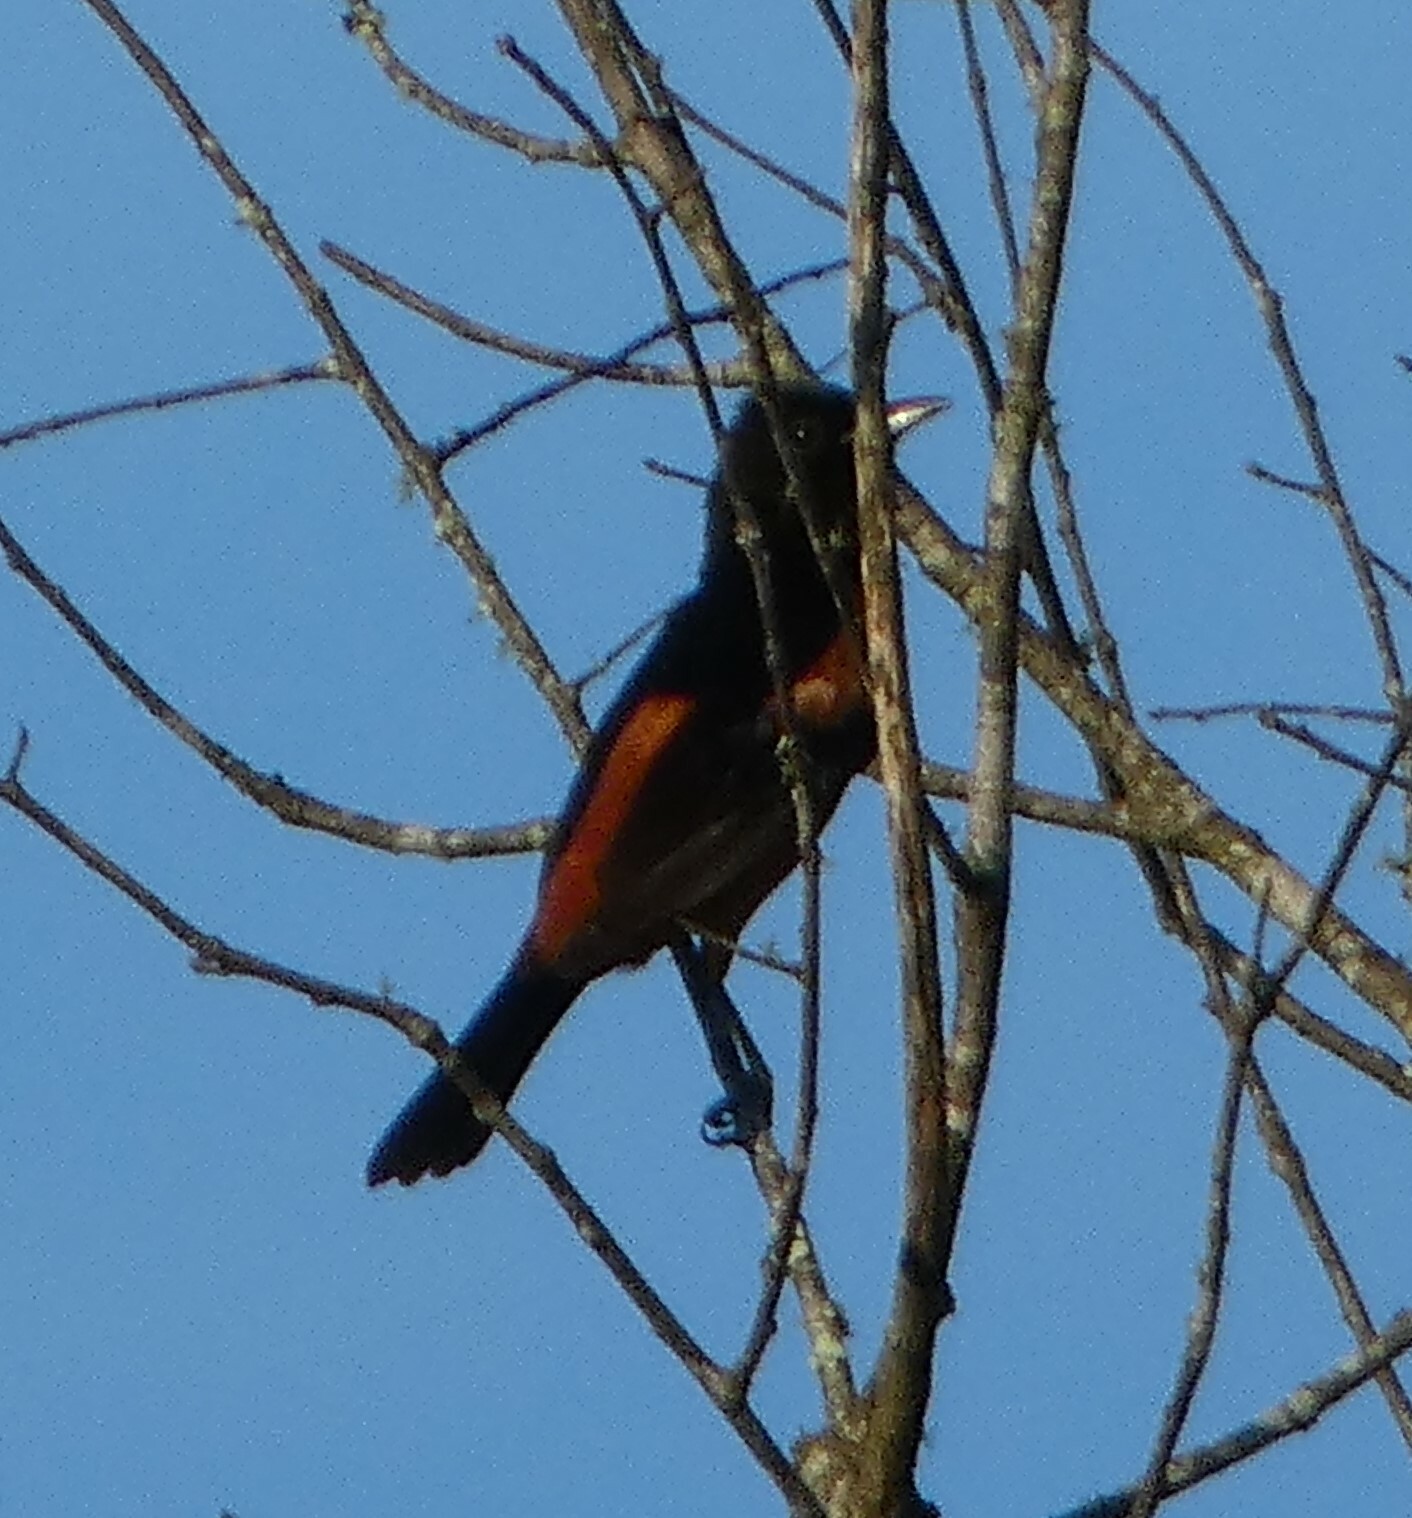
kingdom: Animalia
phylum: Chordata
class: Aves
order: Passeriformes
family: Icteridae
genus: Icterus
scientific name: Icterus spurius
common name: Orchard oriole
